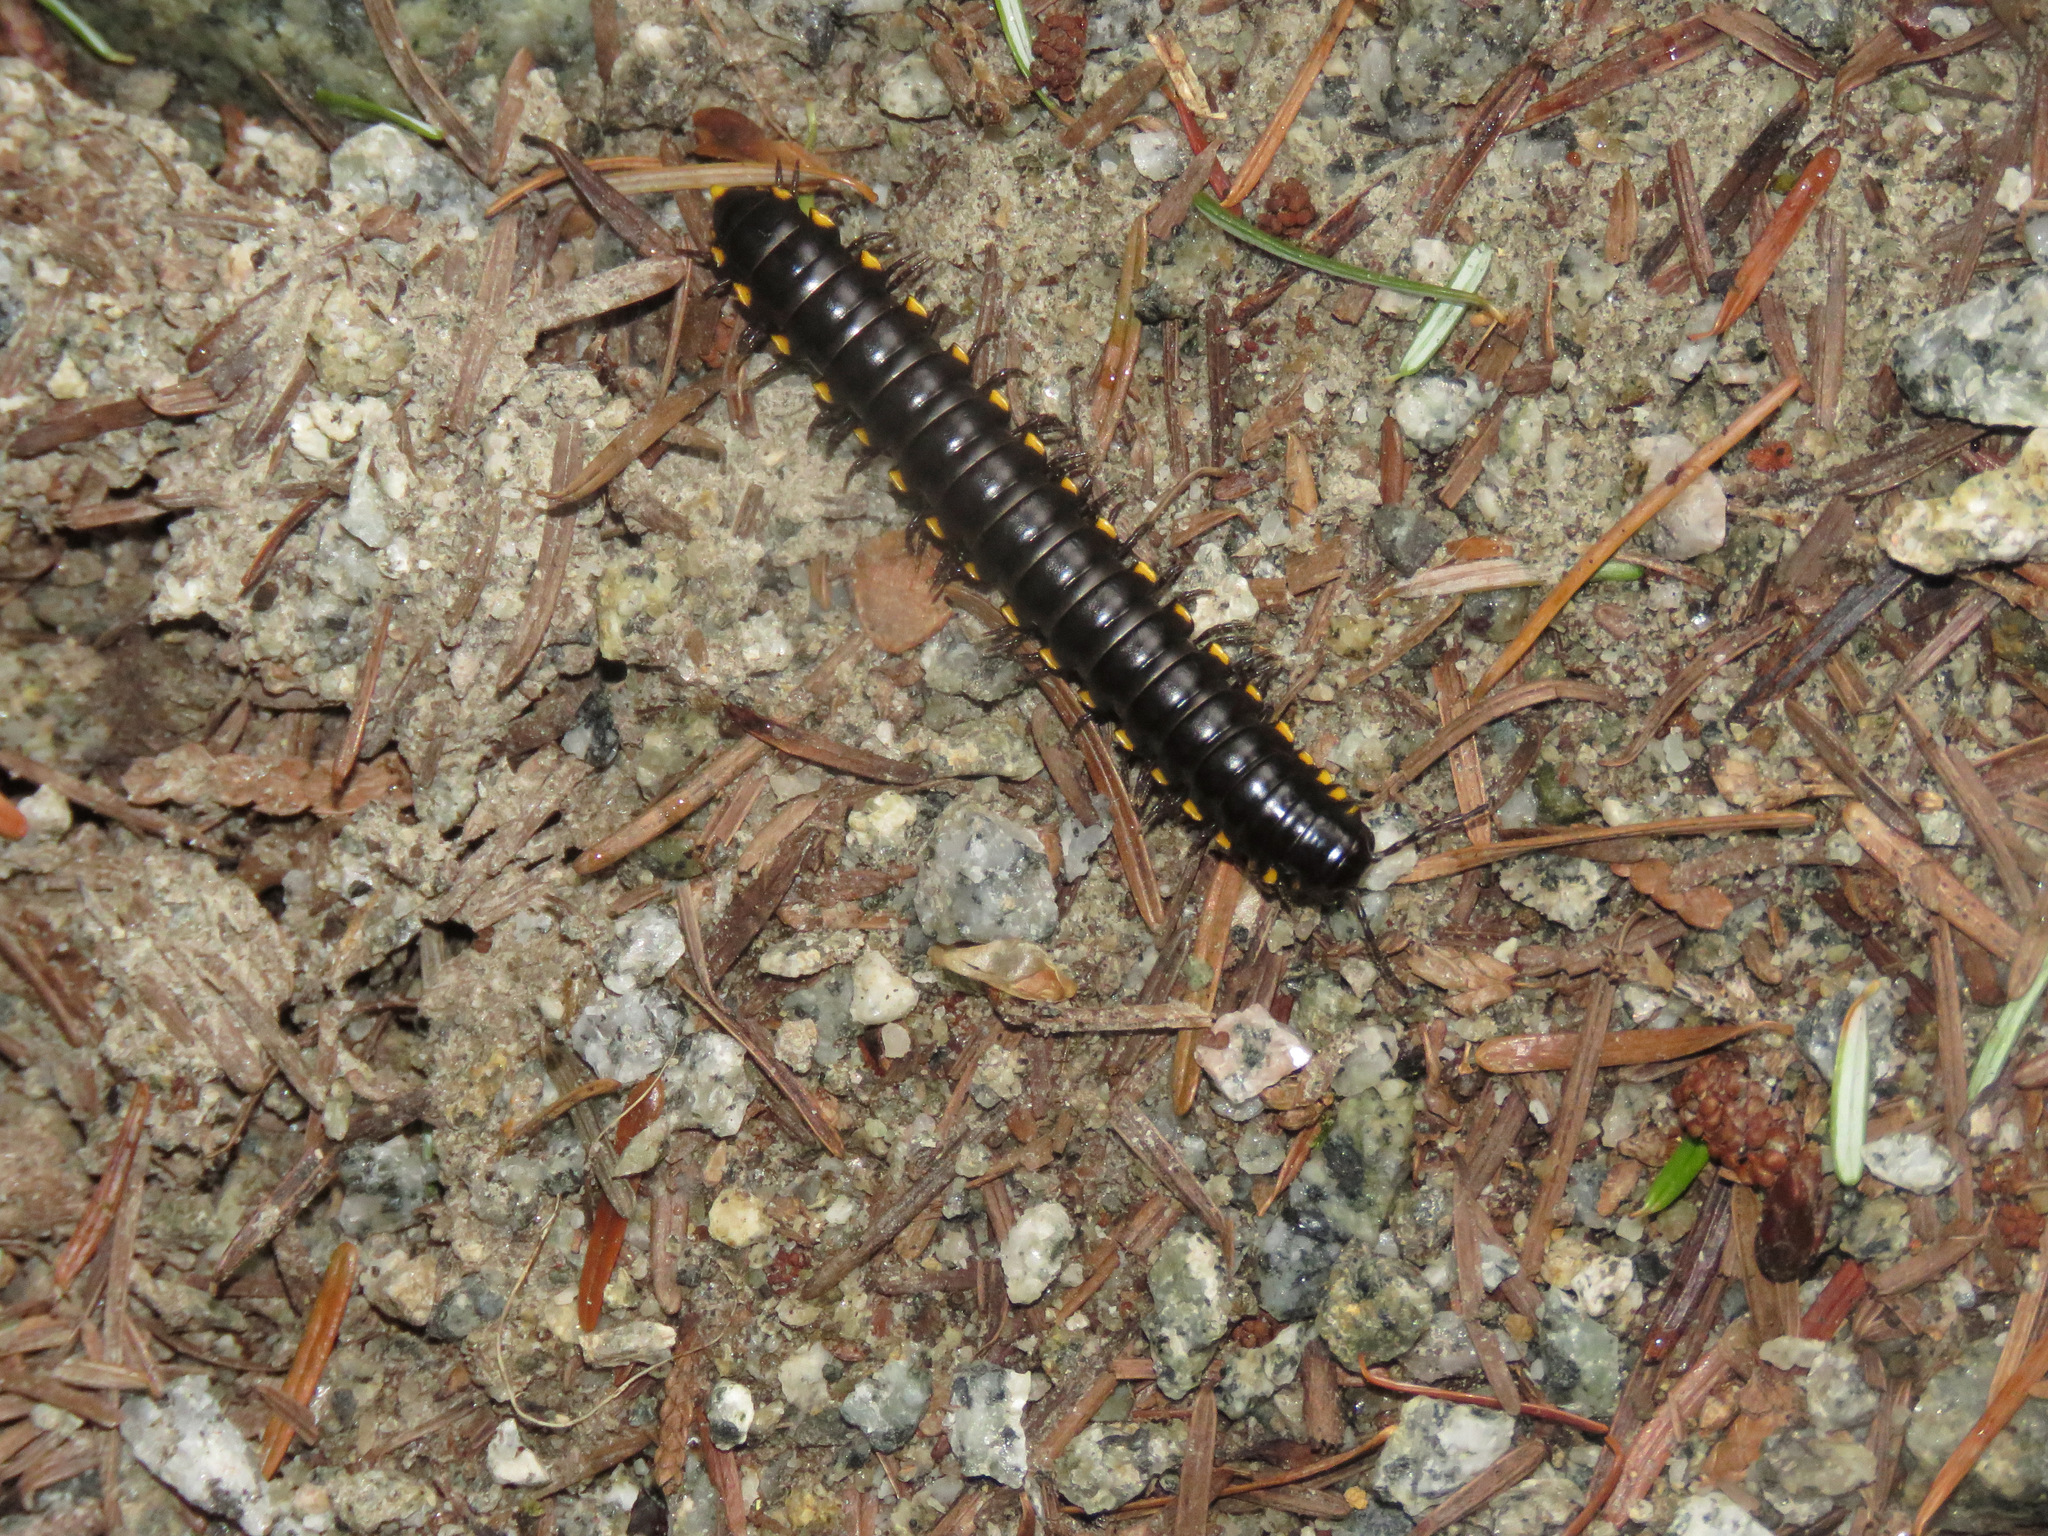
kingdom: Animalia
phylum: Arthropoda
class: Diplopoda
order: Polydesmida
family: Xystodesmidae
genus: Harpaphe
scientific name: Harpaphe haydeniana
